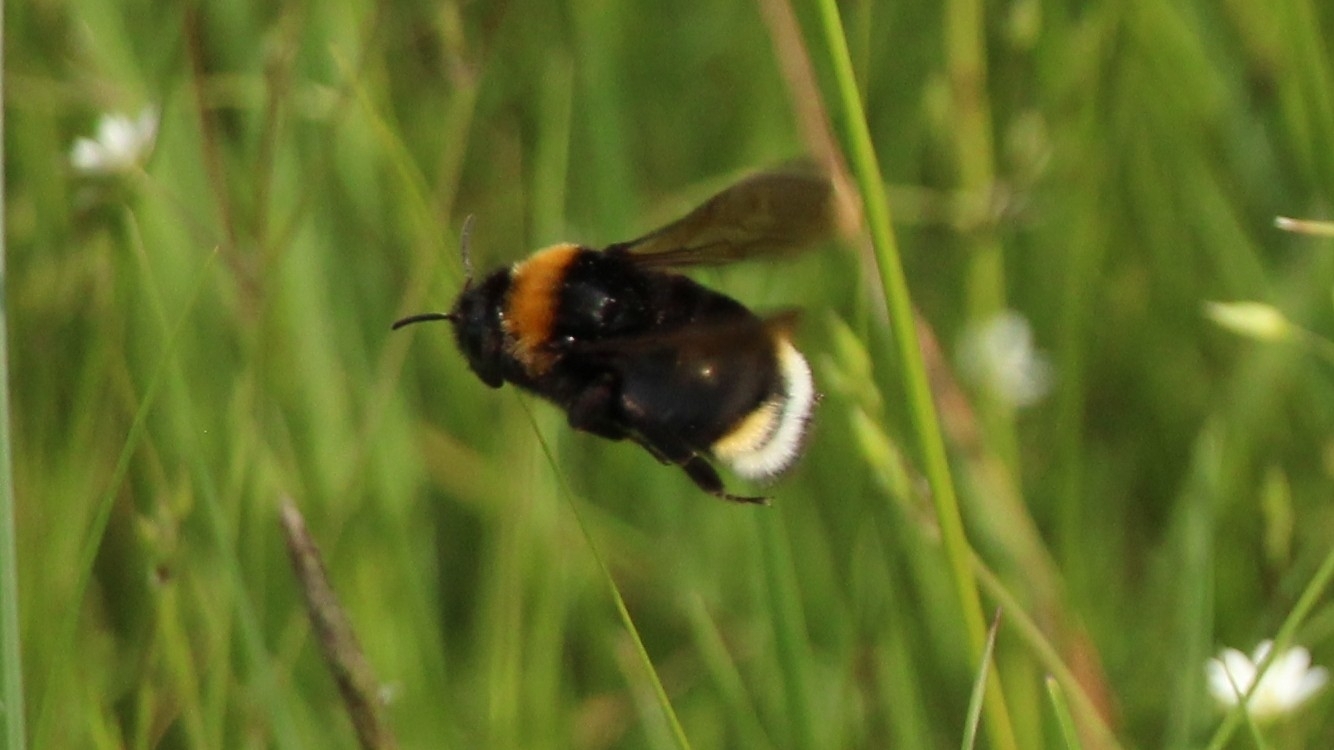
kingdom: Animalia
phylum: Arthropoda
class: Insecta
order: Hymenoptera
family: Apidae
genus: Bombus
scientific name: Bombus vestalis
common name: Vestal cuckoo bee
